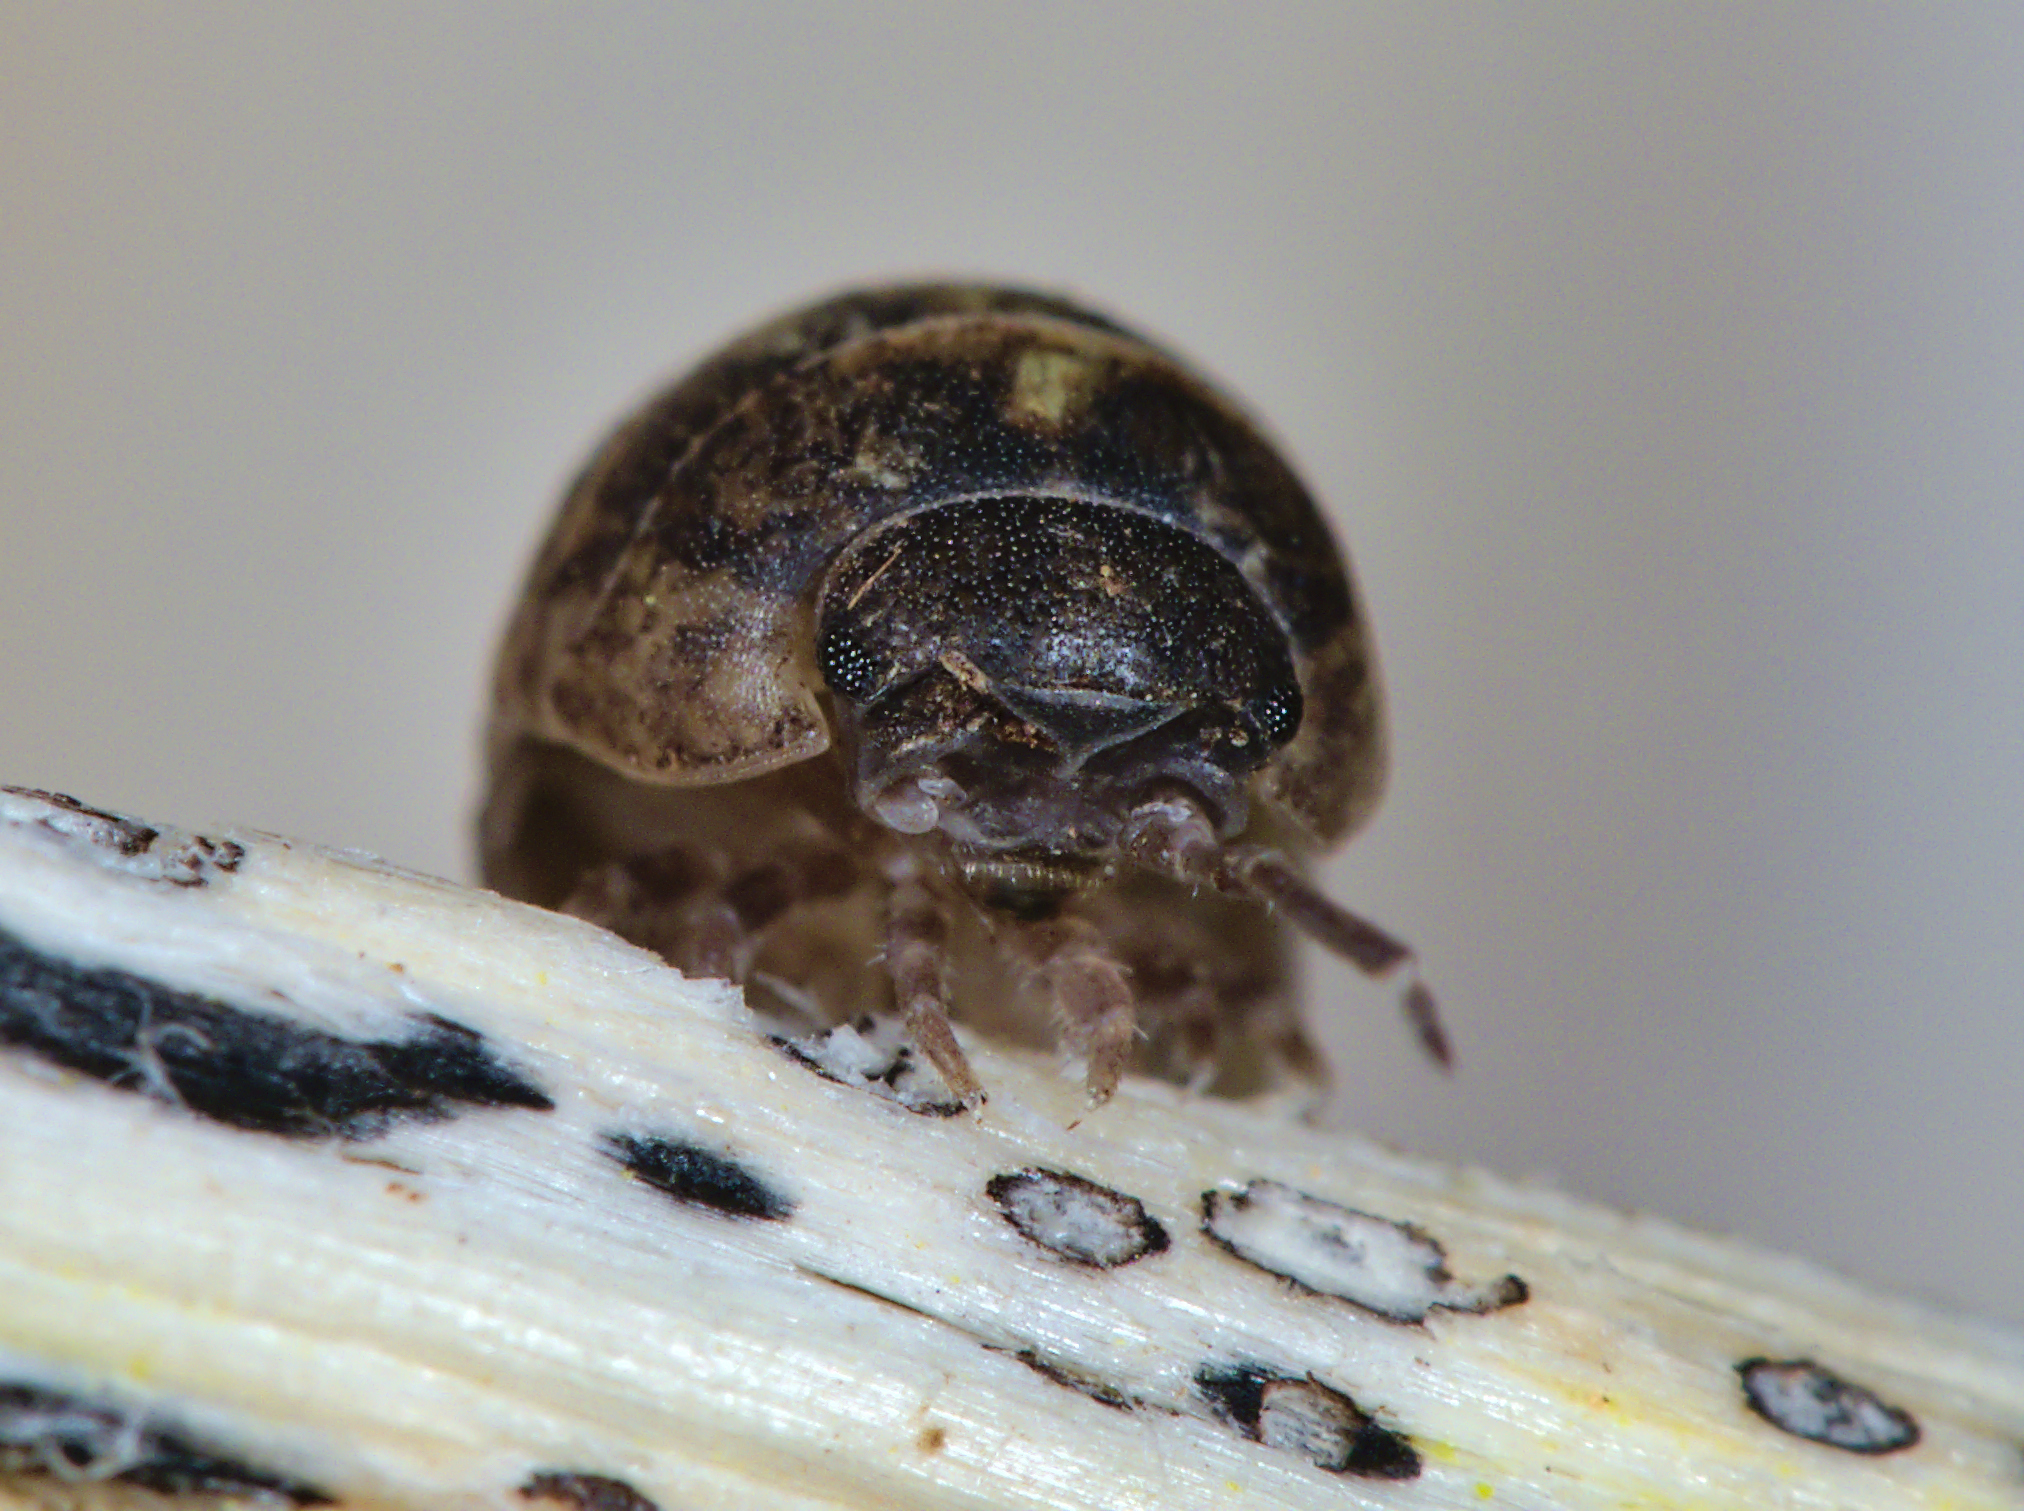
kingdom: Animalia
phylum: Arthropoda
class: Malacostraca
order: Isopoda
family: Armadillidiidae
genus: Armadillidium
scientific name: Armadillidium vulgare
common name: Common pill woodlouse
